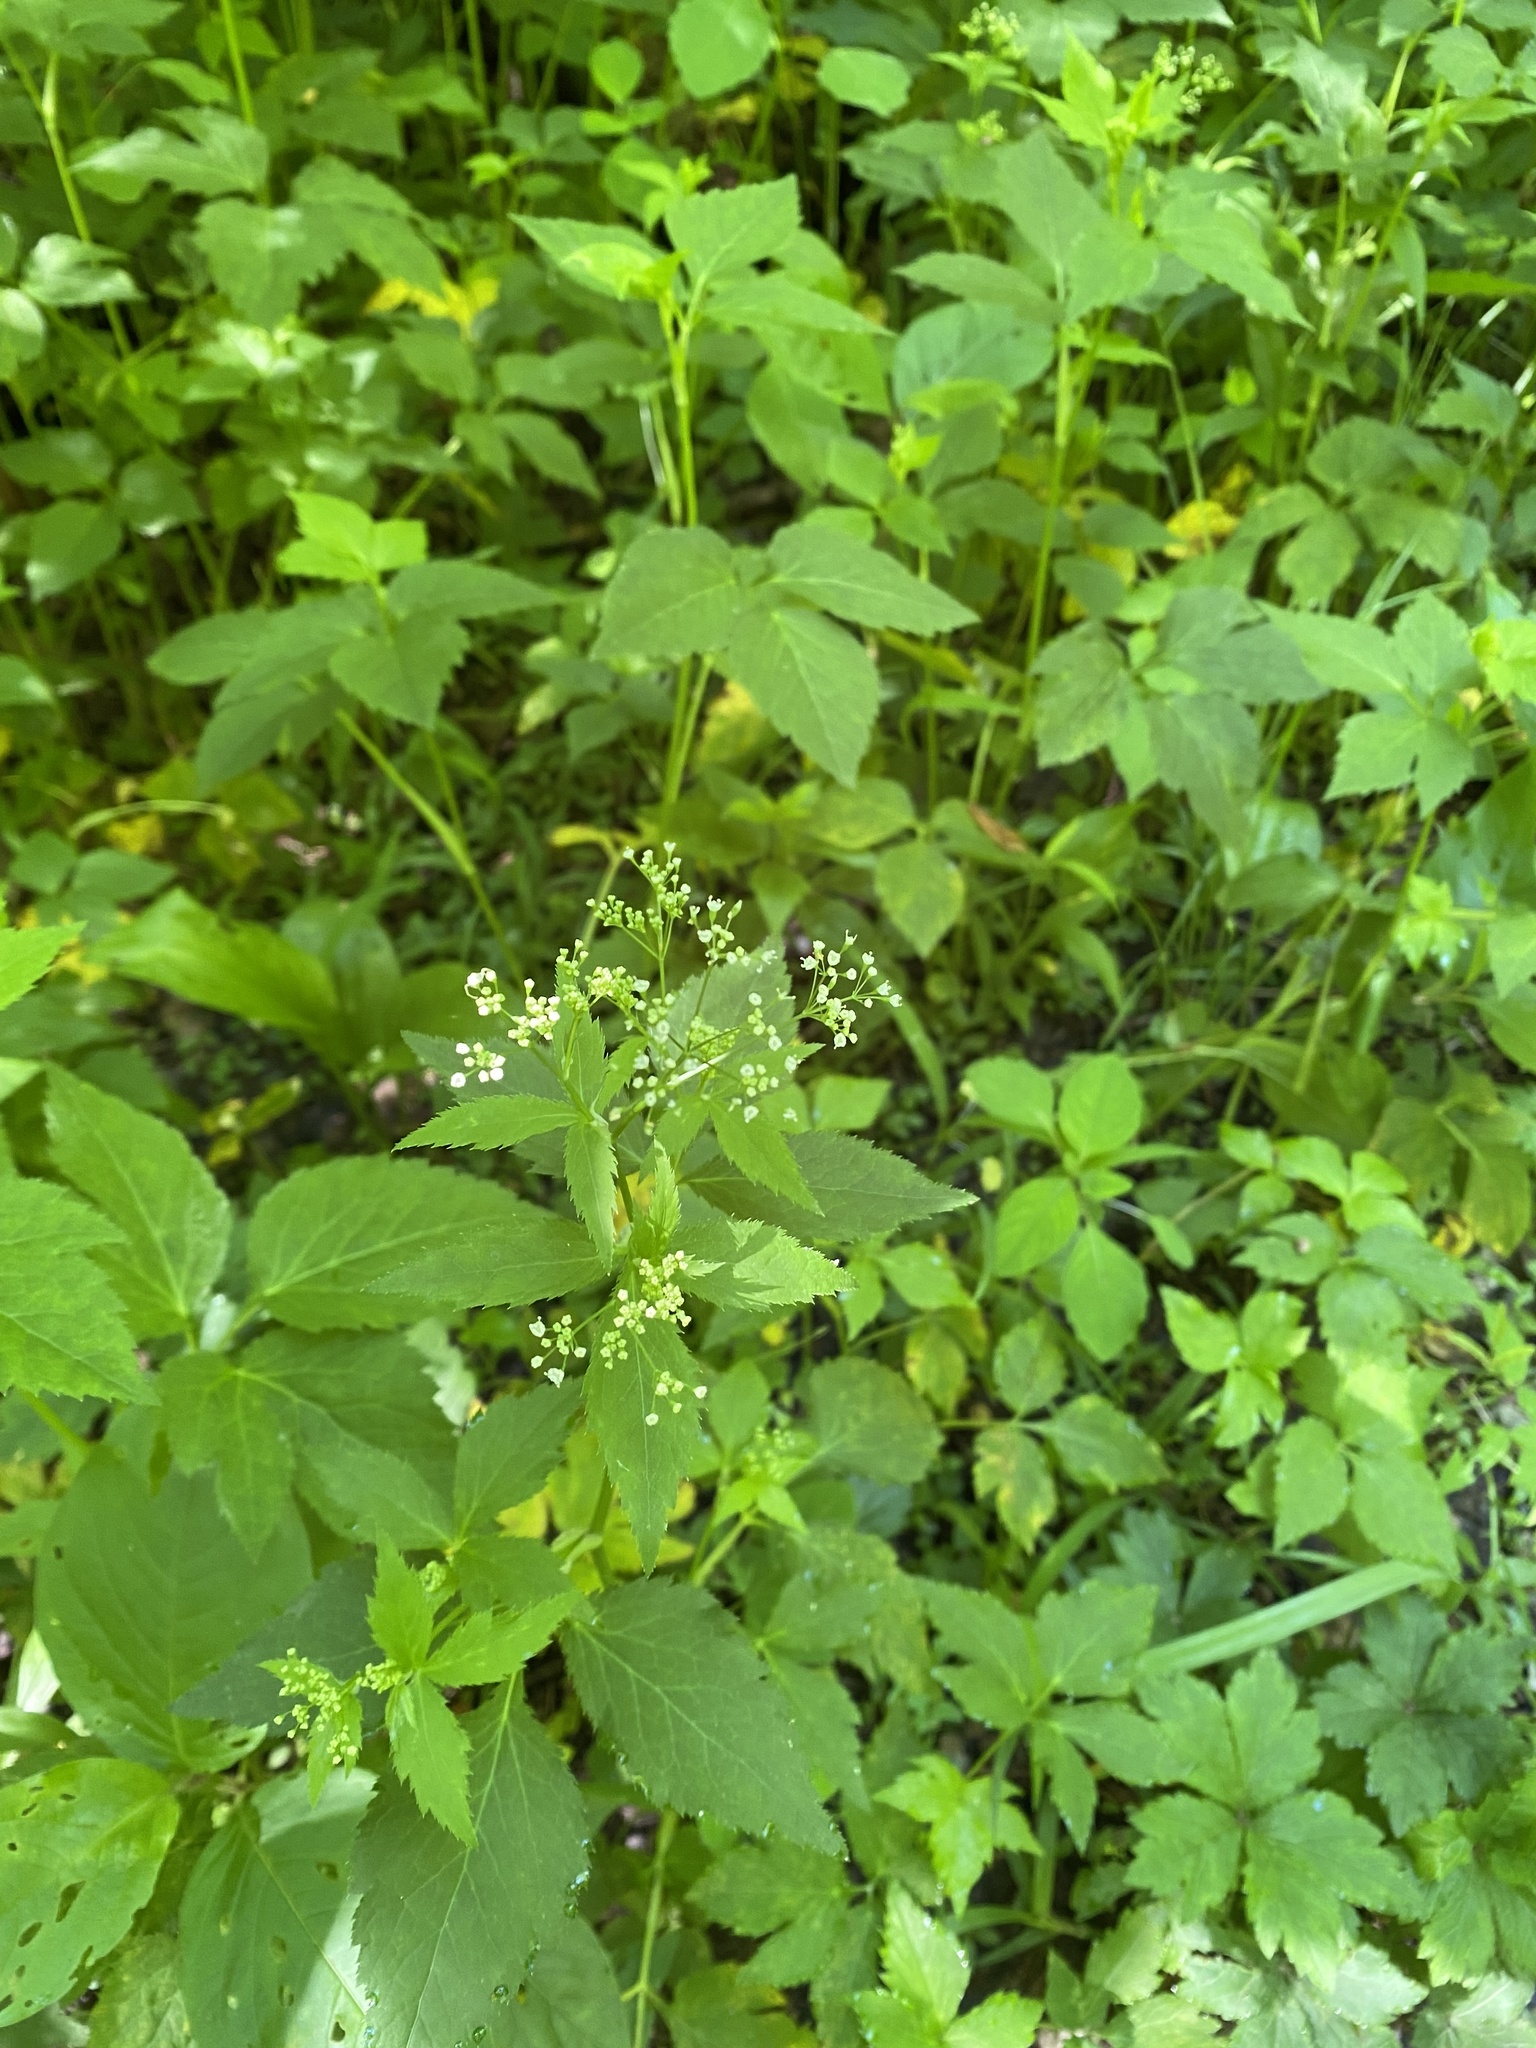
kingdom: Plantae
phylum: Tracheophyta
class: Magnoliopsida
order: Apiales
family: Apiaceae
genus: Cryptotaenia
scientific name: Cryptotaenia canadensis
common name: Honewort
